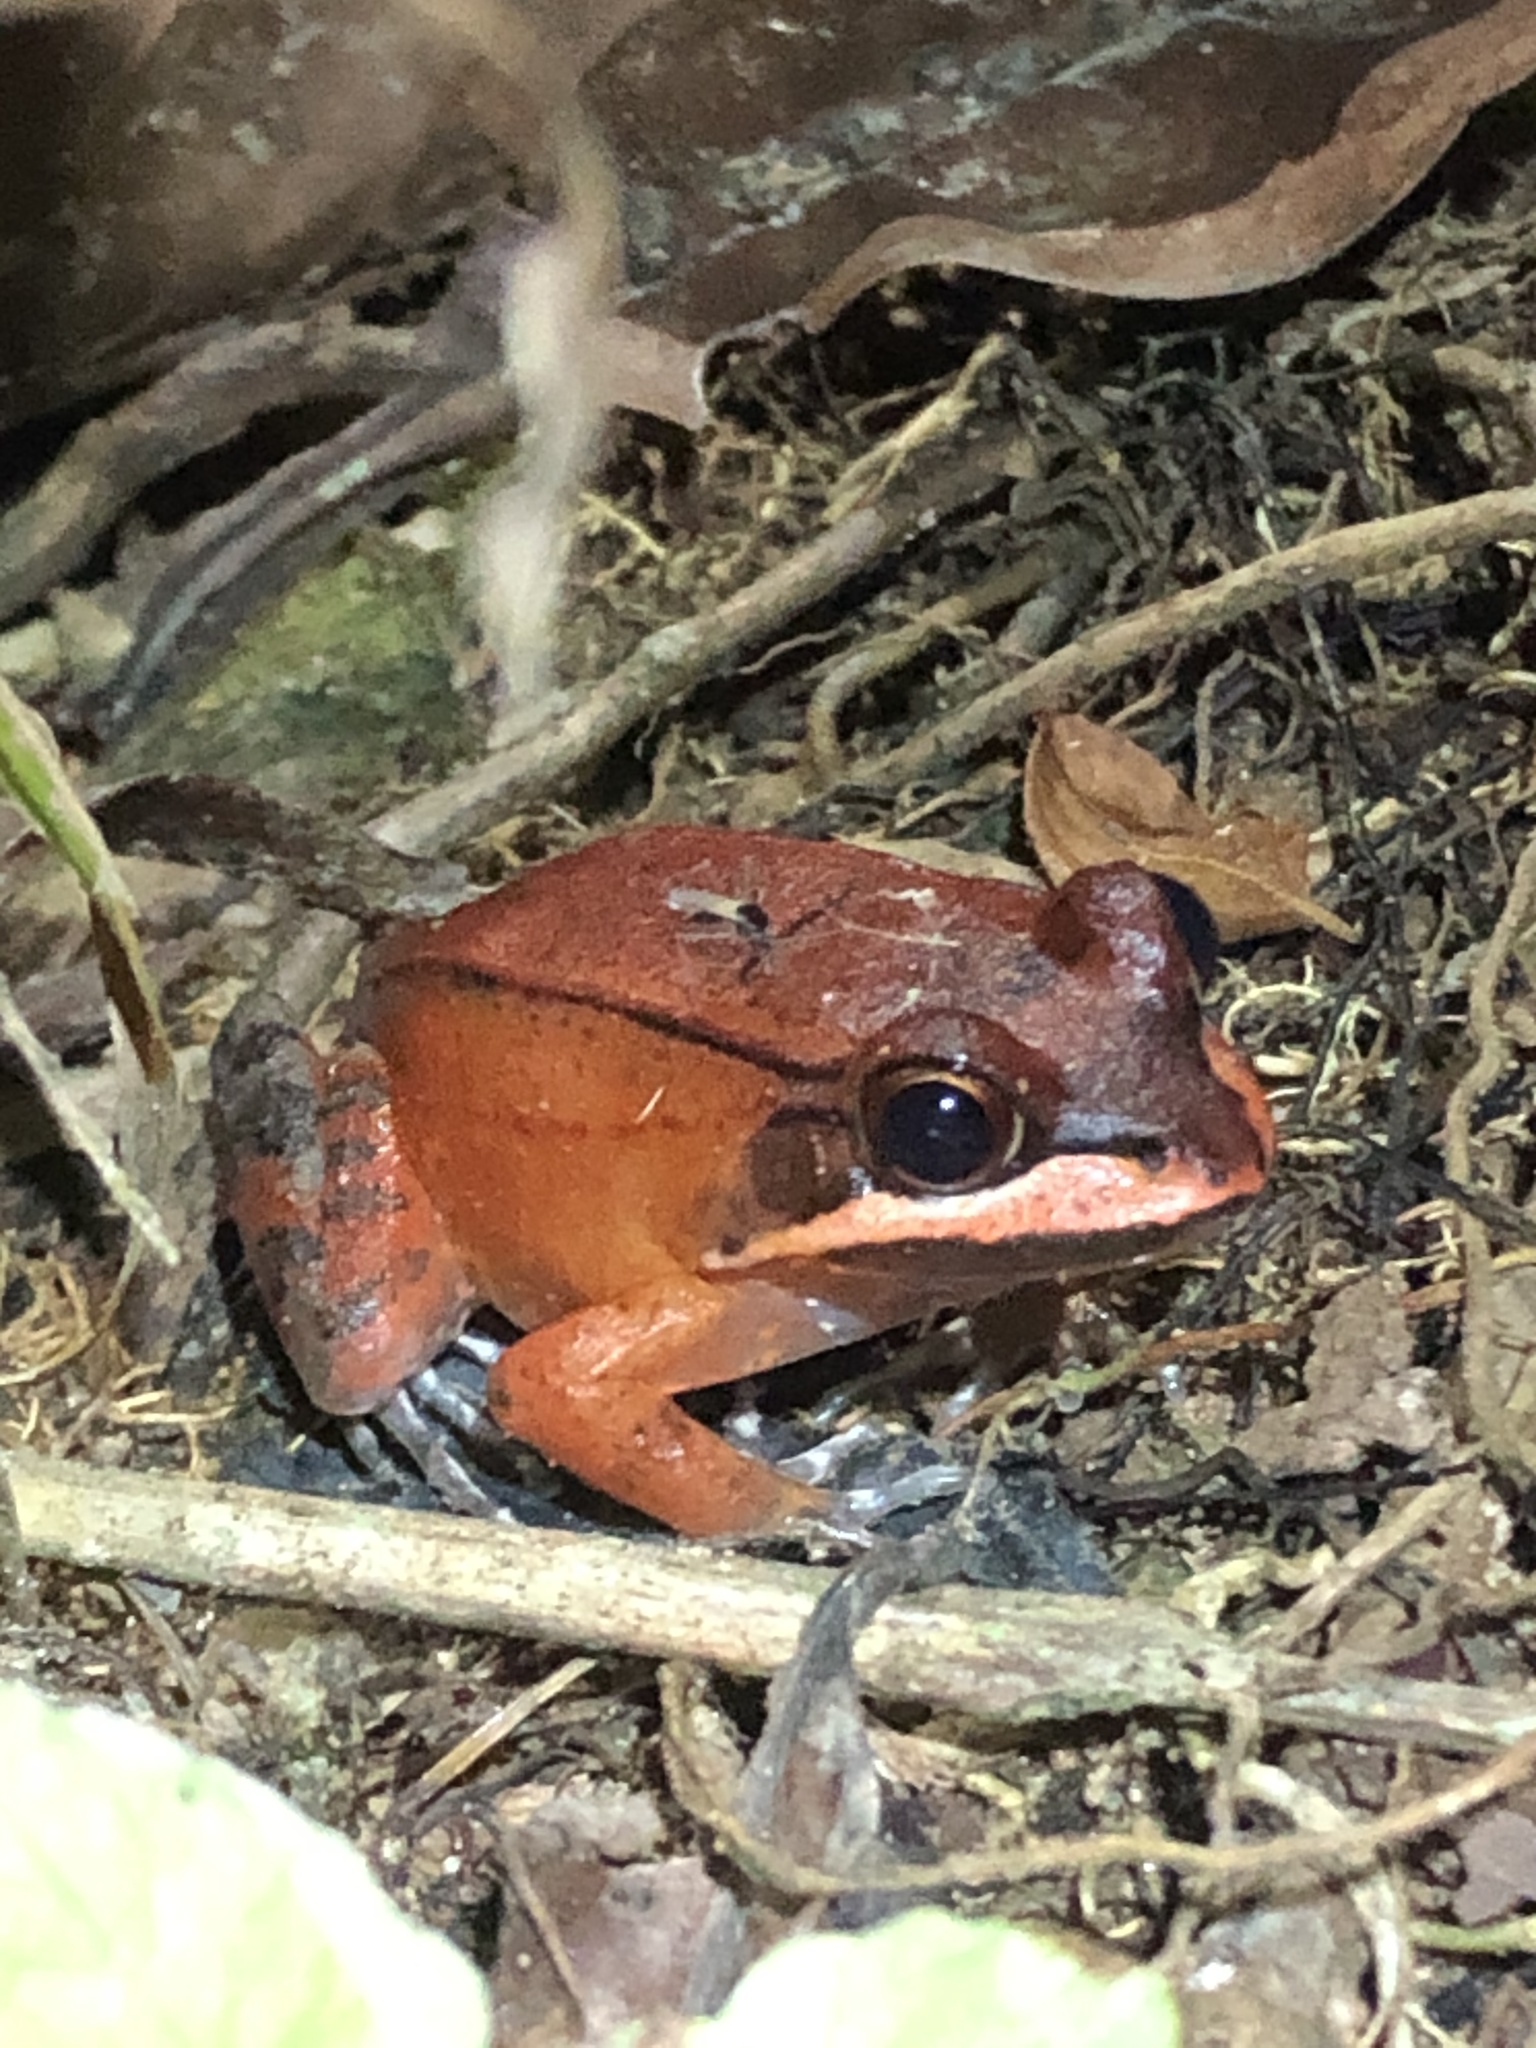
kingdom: Animalia
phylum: Chordata
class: Amphibia
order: Anura
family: Leptodactylidae
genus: Leptodactylus
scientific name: Leptodactylus rhodomystax
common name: Loreto white-lipped frog
